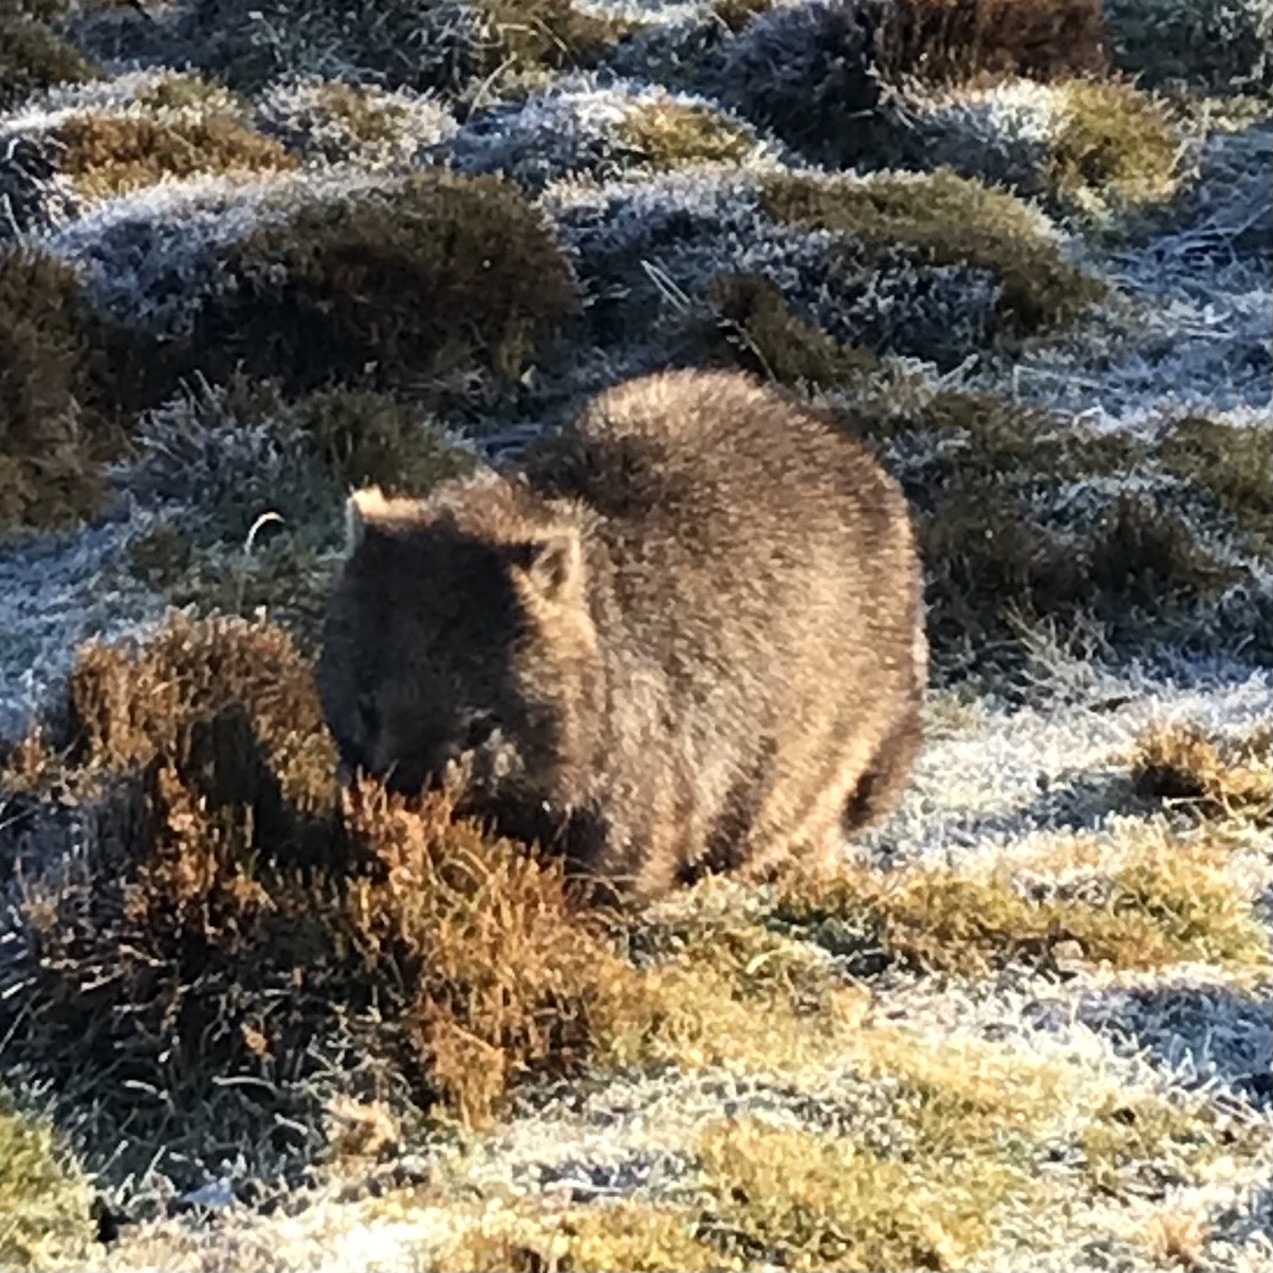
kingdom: Animalia
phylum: Chordata
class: Mammalia
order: Diprotodontia
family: Vombatidae
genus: Vombatus
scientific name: Vombatus ursinus
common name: Common wombat
